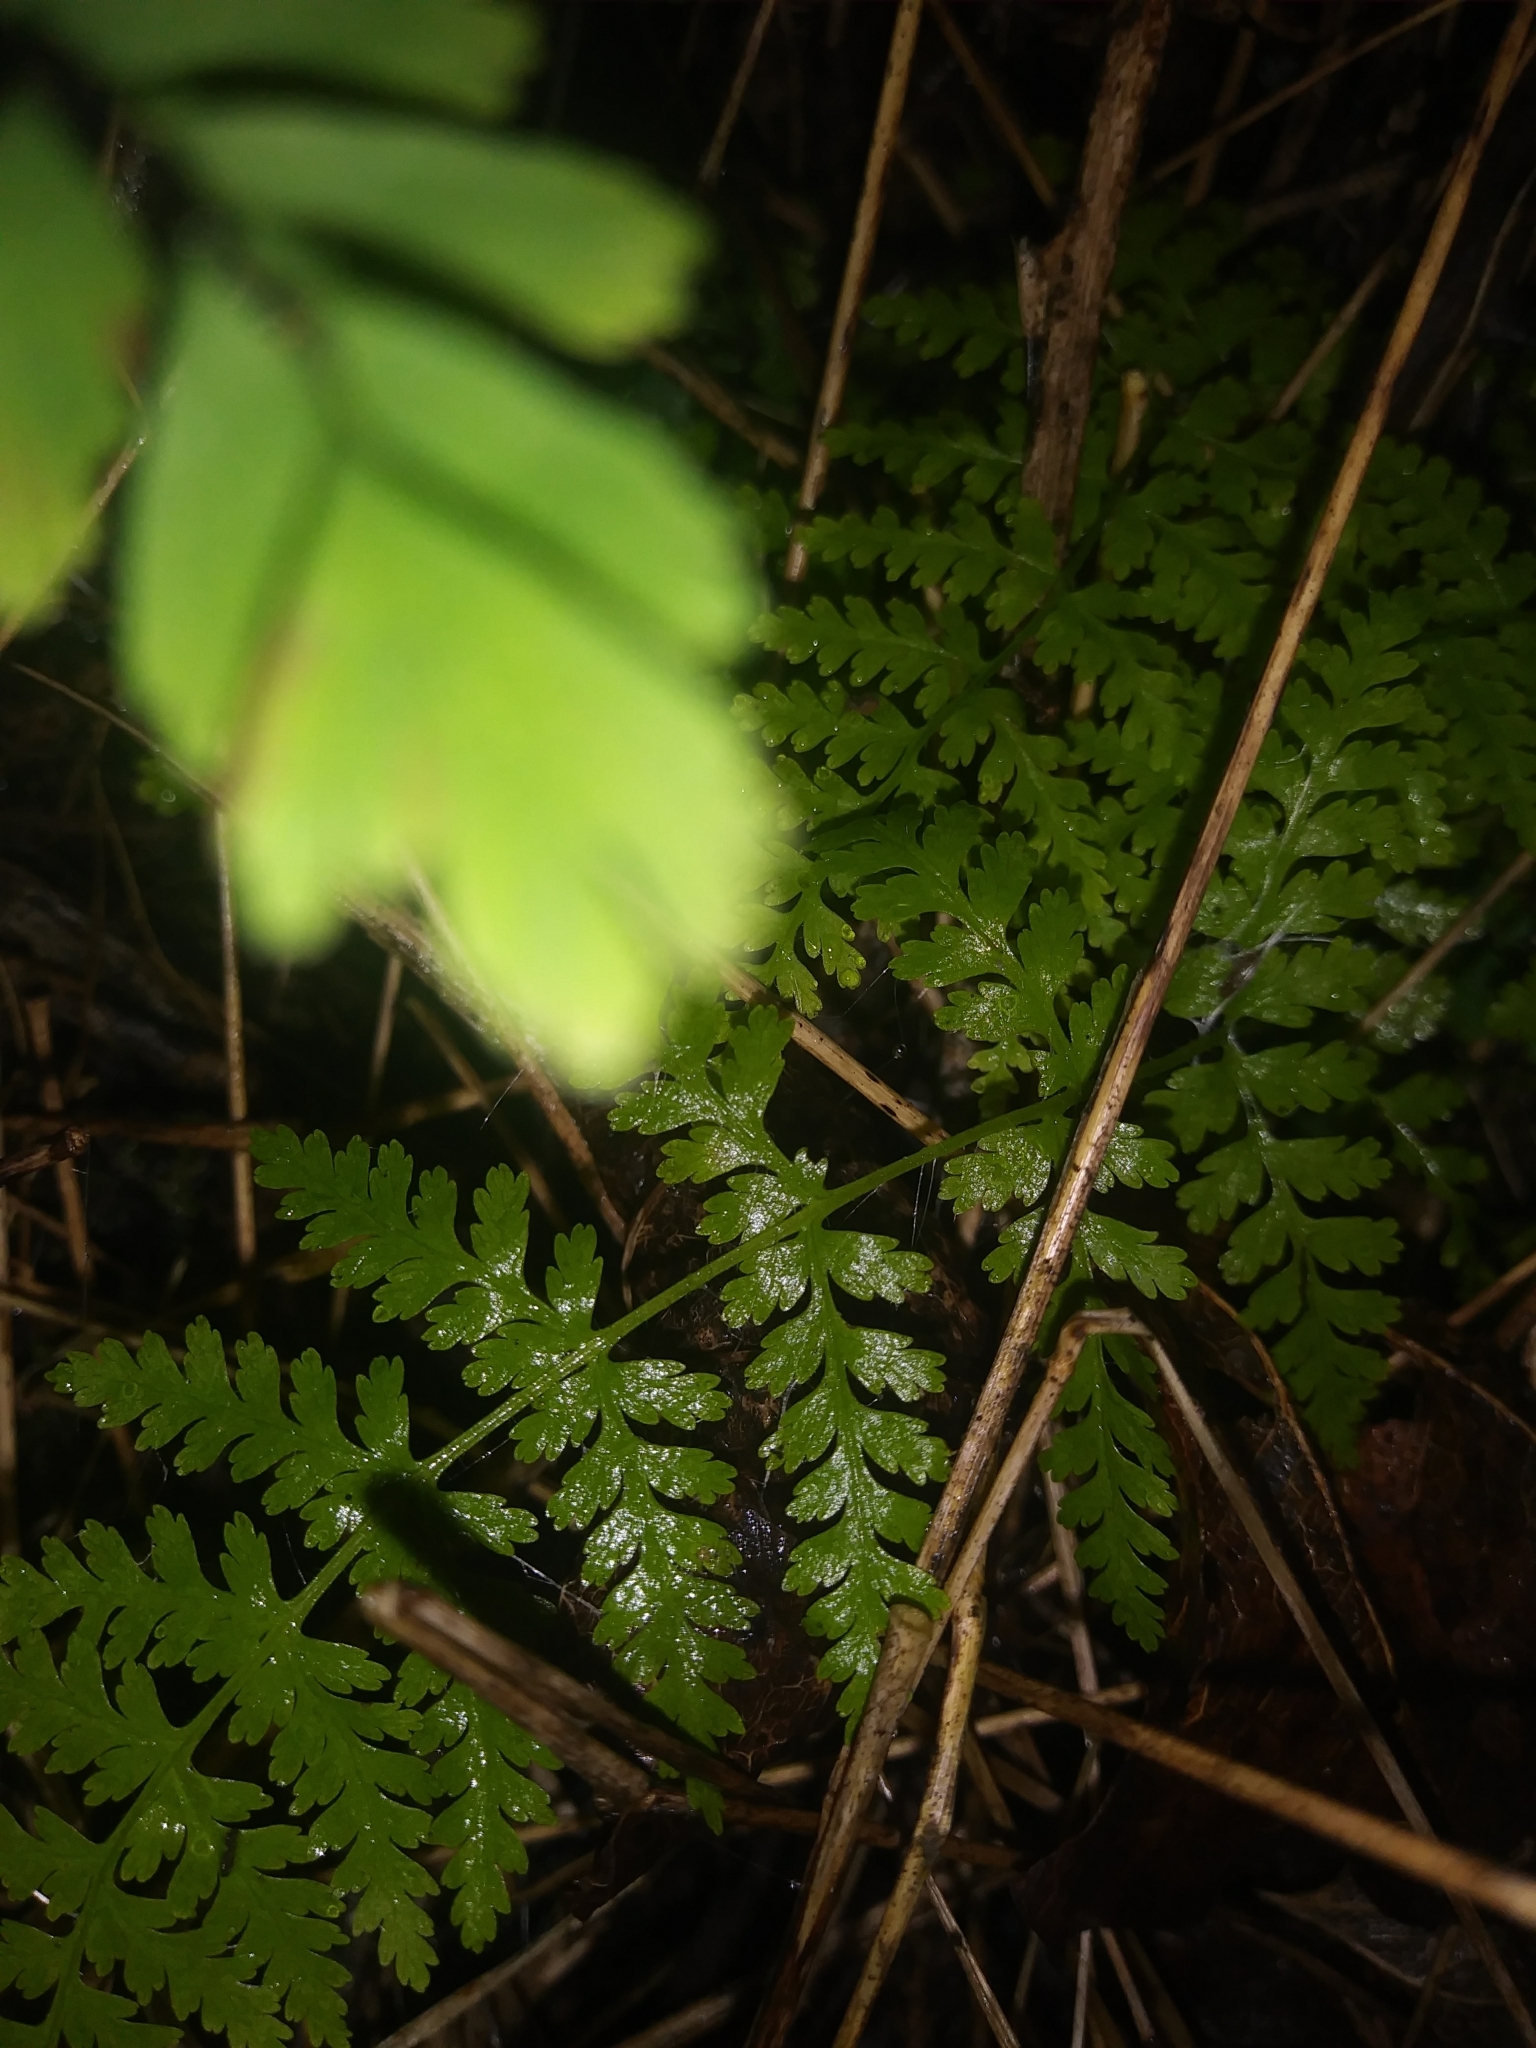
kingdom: Plantae
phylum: Tracheophyta
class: Polypodiopsida
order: Polypodiales
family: Dennstaedtiaceae
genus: Sitobolium
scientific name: Sitobolium punctilobum
